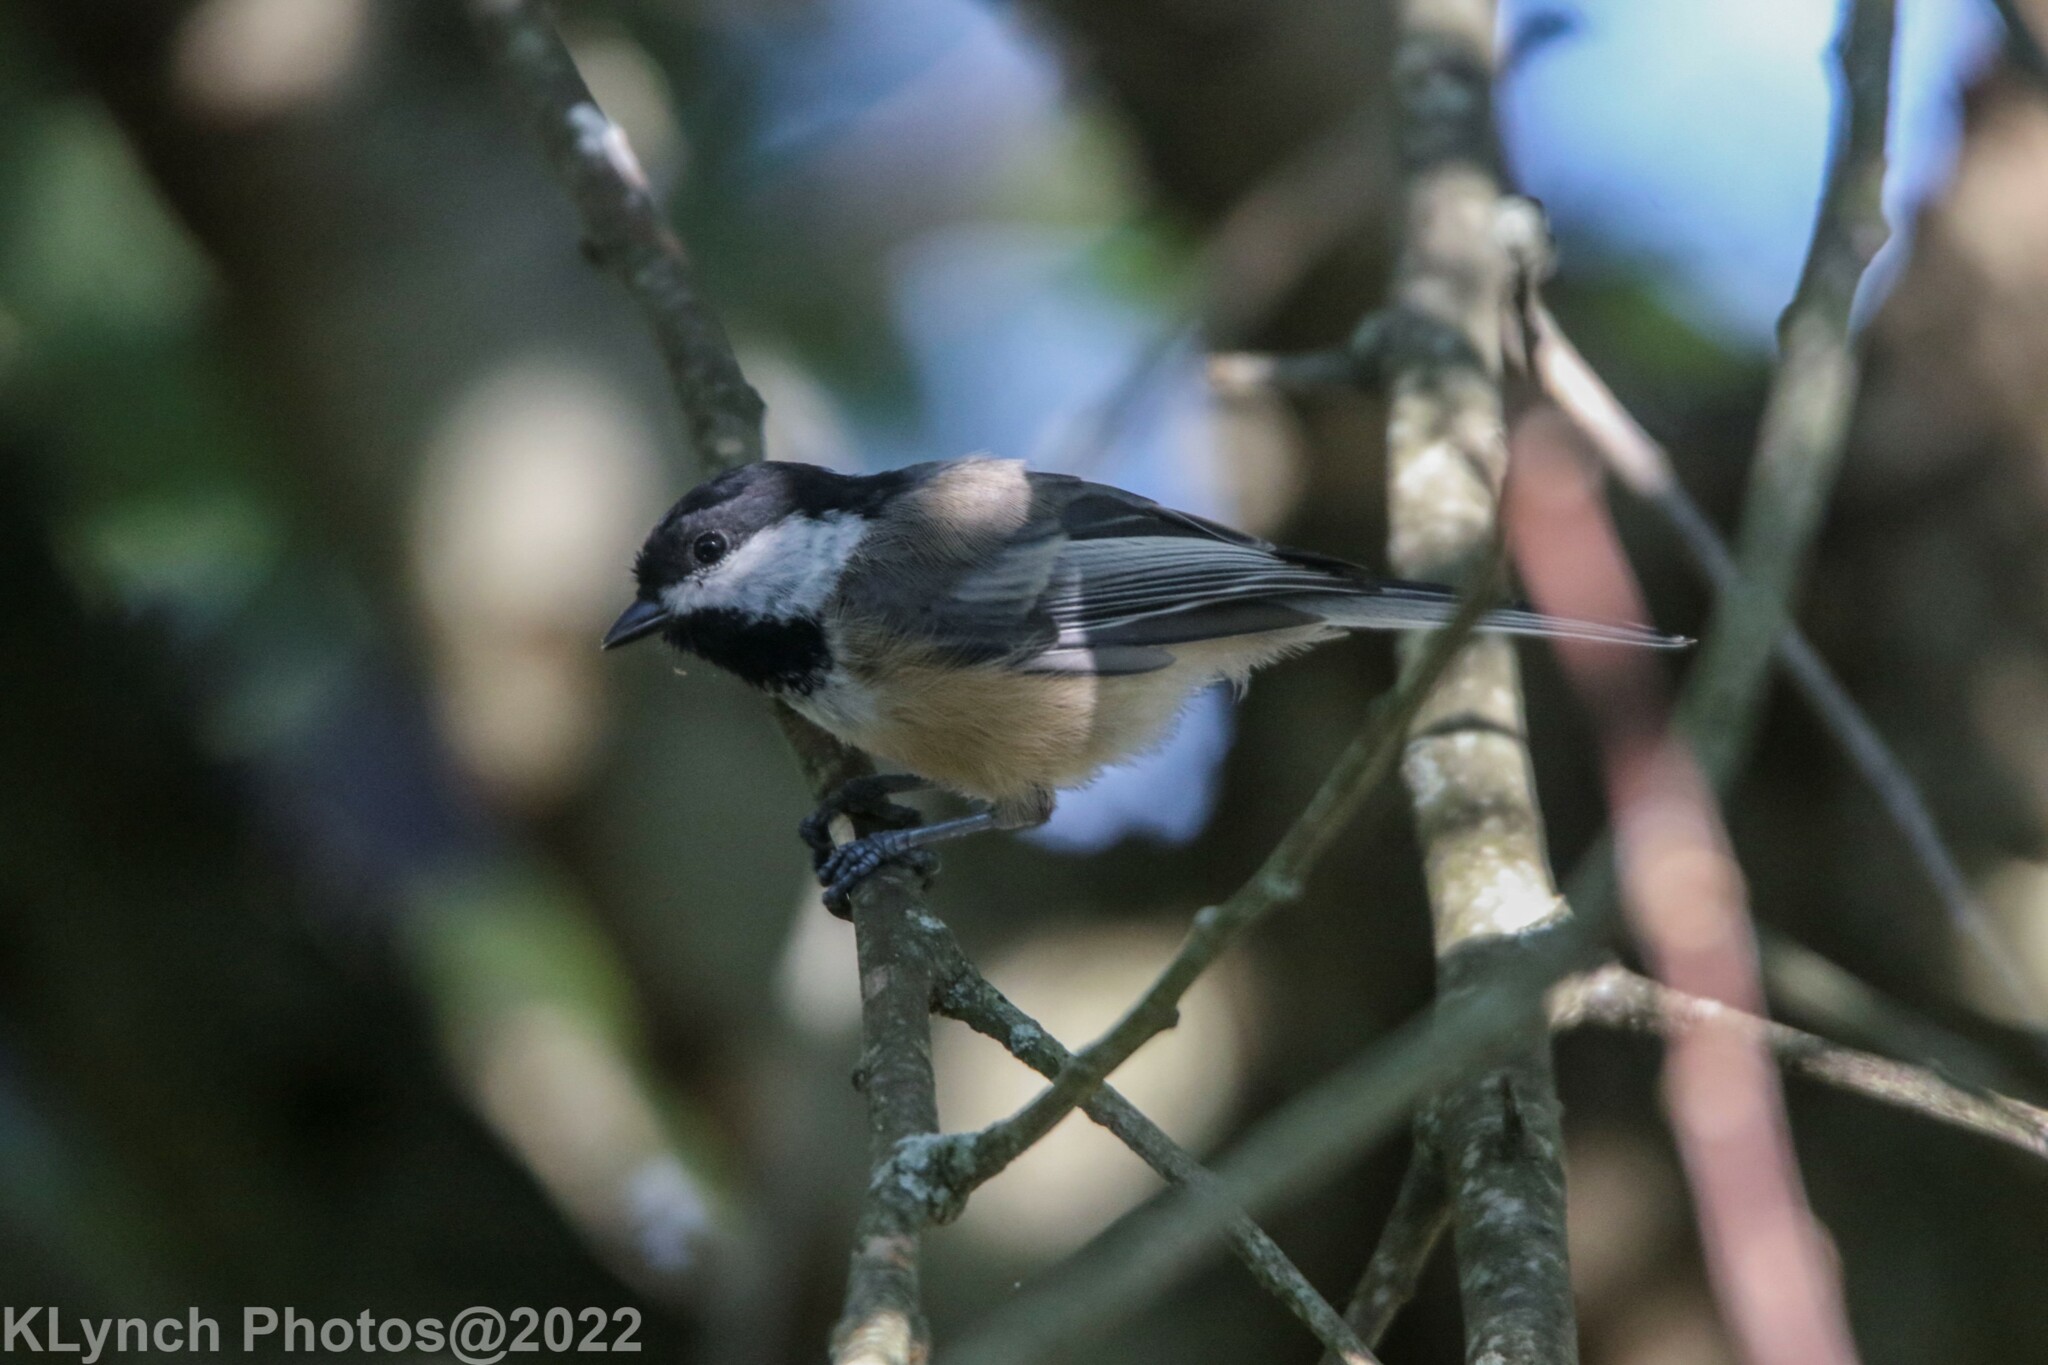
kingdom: Animalia
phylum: Chordata
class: Aves
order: Passeriformes
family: Paridae
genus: Poecile
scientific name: Poecile atricapillus
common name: Black-capped chickadee
